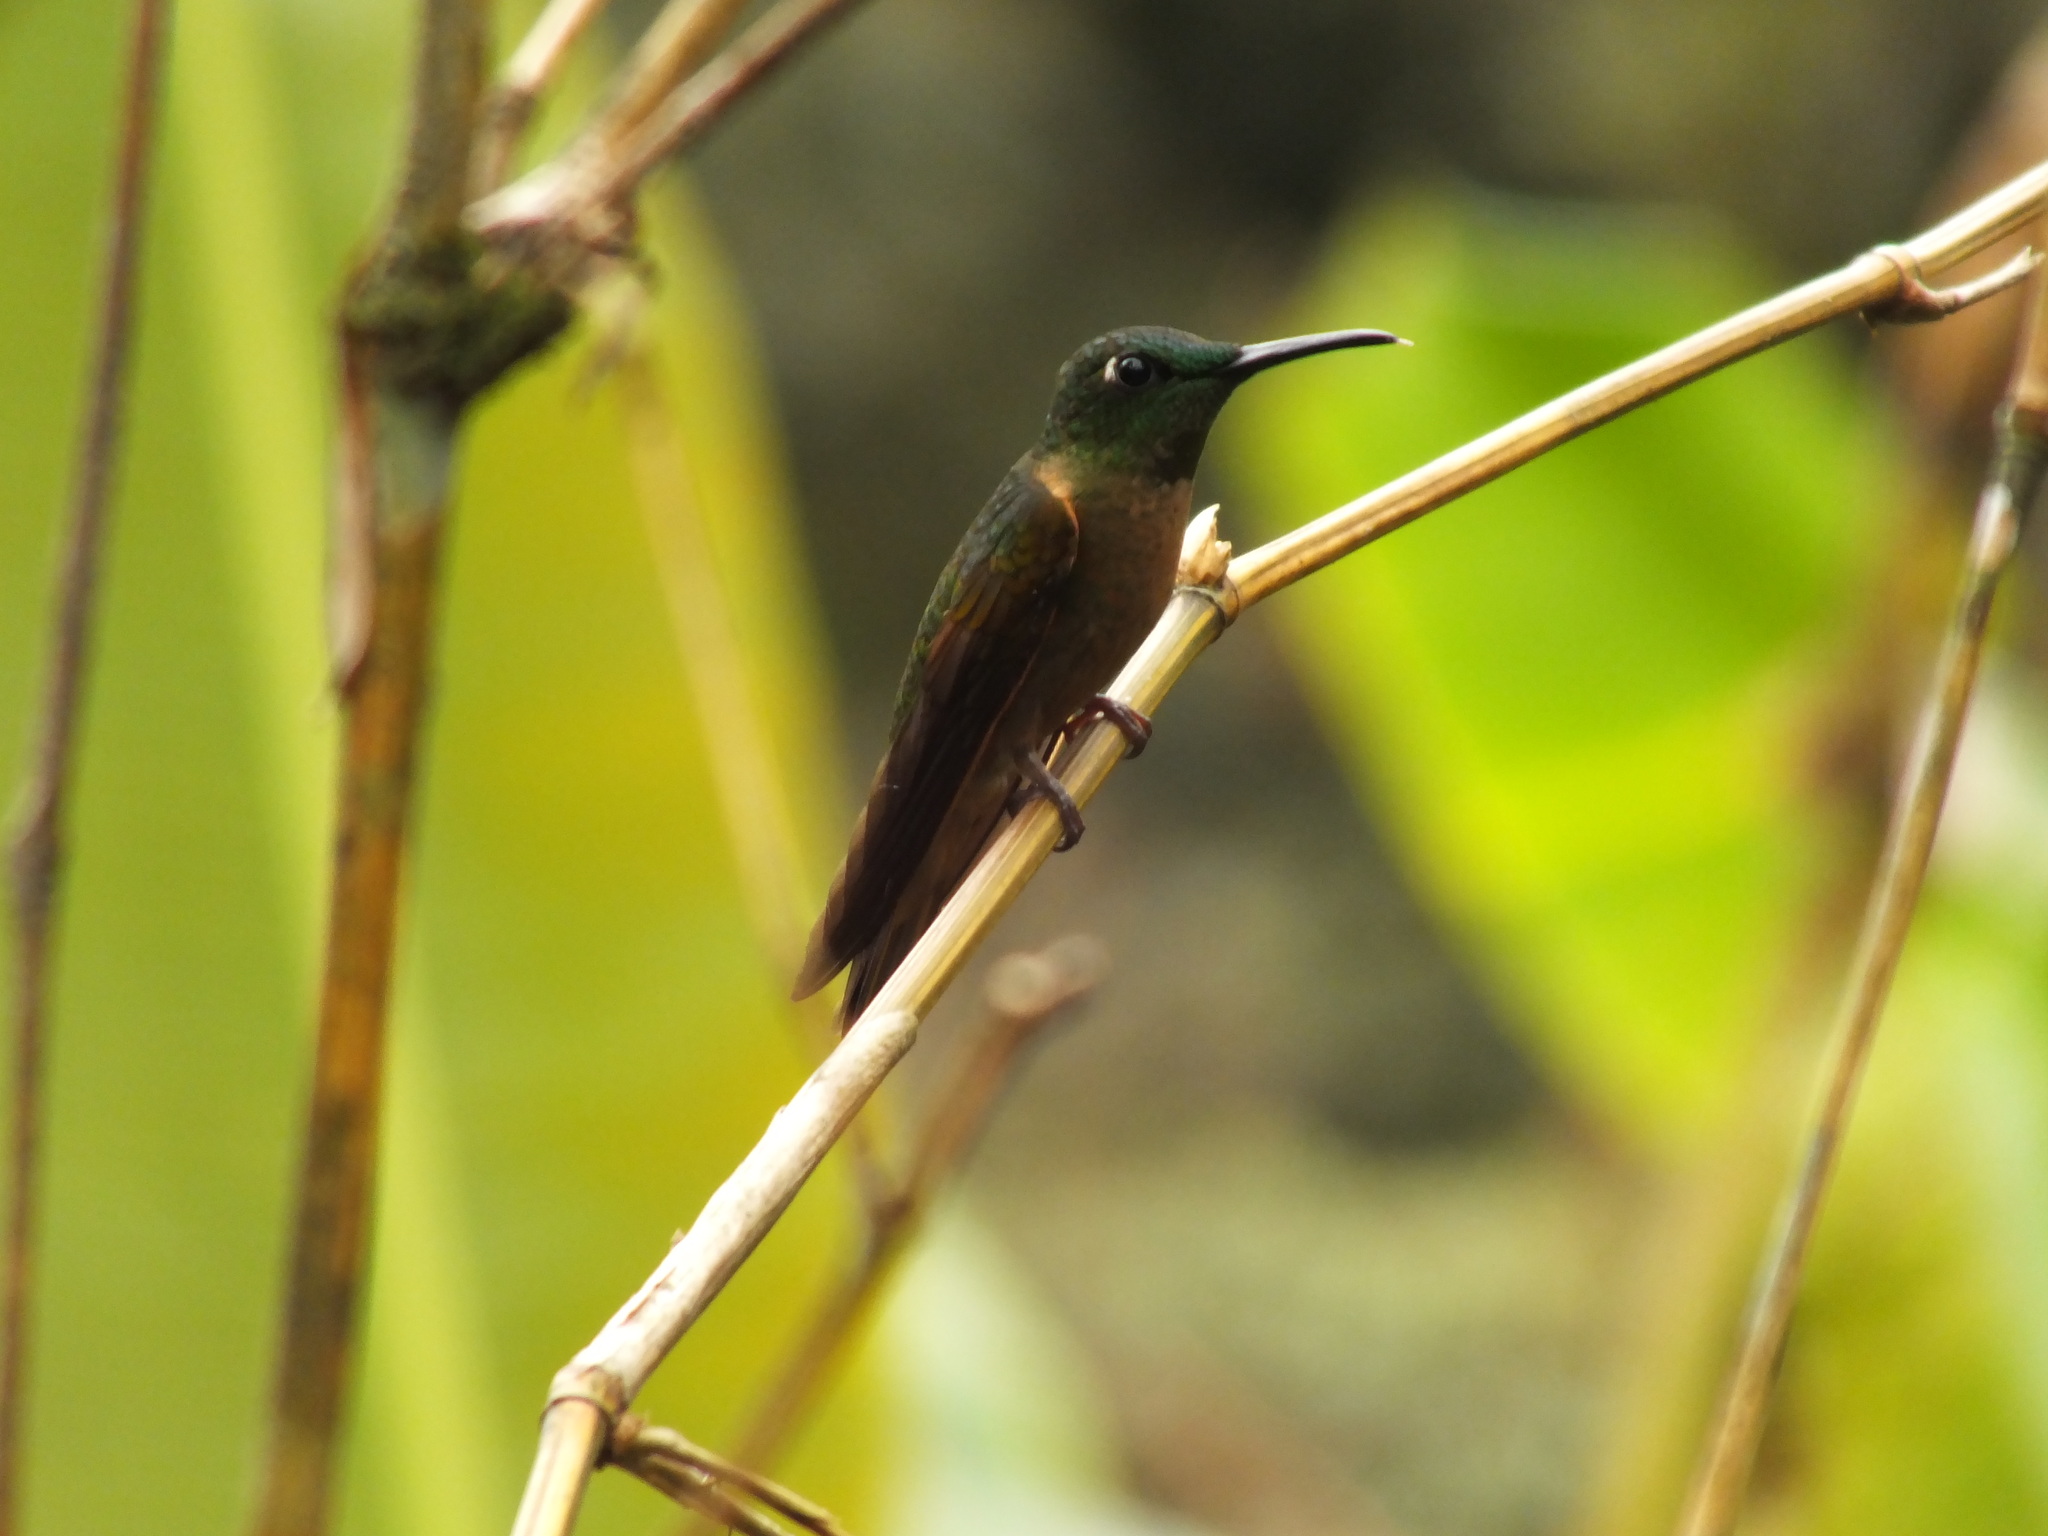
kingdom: Animalia
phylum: Chordata
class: Aves
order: Apodiformes
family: Trochilidae
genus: Heliodoxa
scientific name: Heliodoxa rubinoides
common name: Fawn-breasted brilliant
